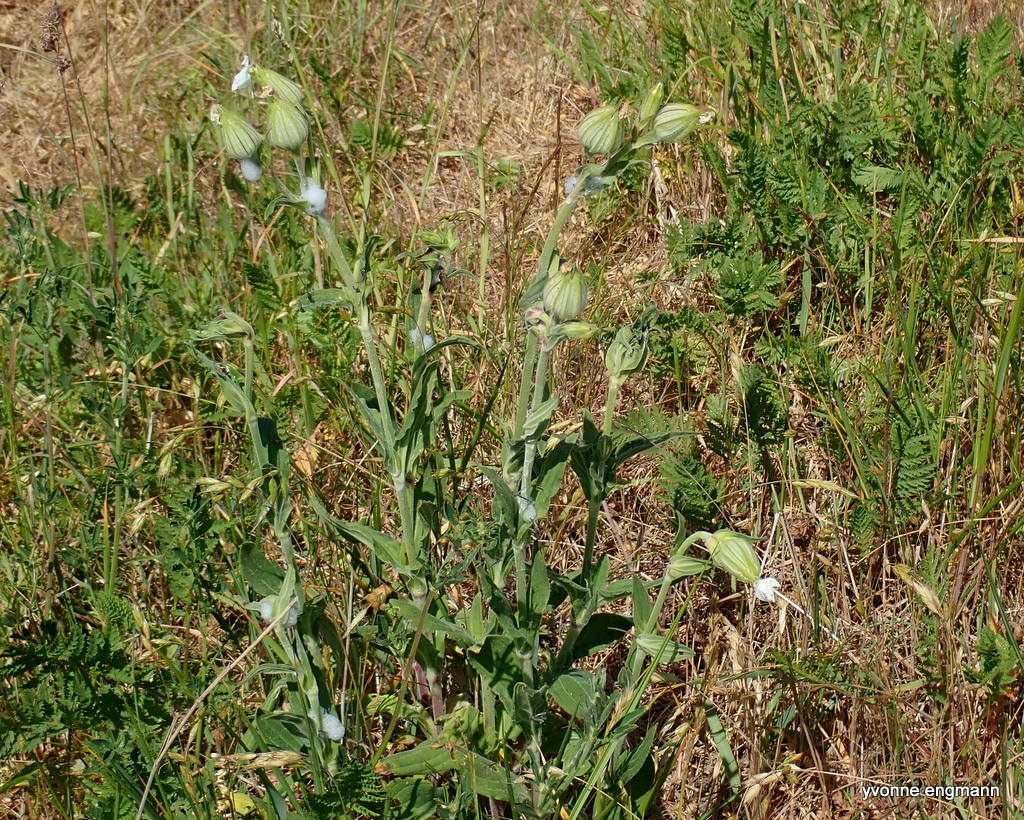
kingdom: Plantae
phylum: Tracheophyta
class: Magnoliopsida
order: Caryophyllales
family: Caryophyllaceae
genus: Silene
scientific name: Silene latifolia
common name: White campion
